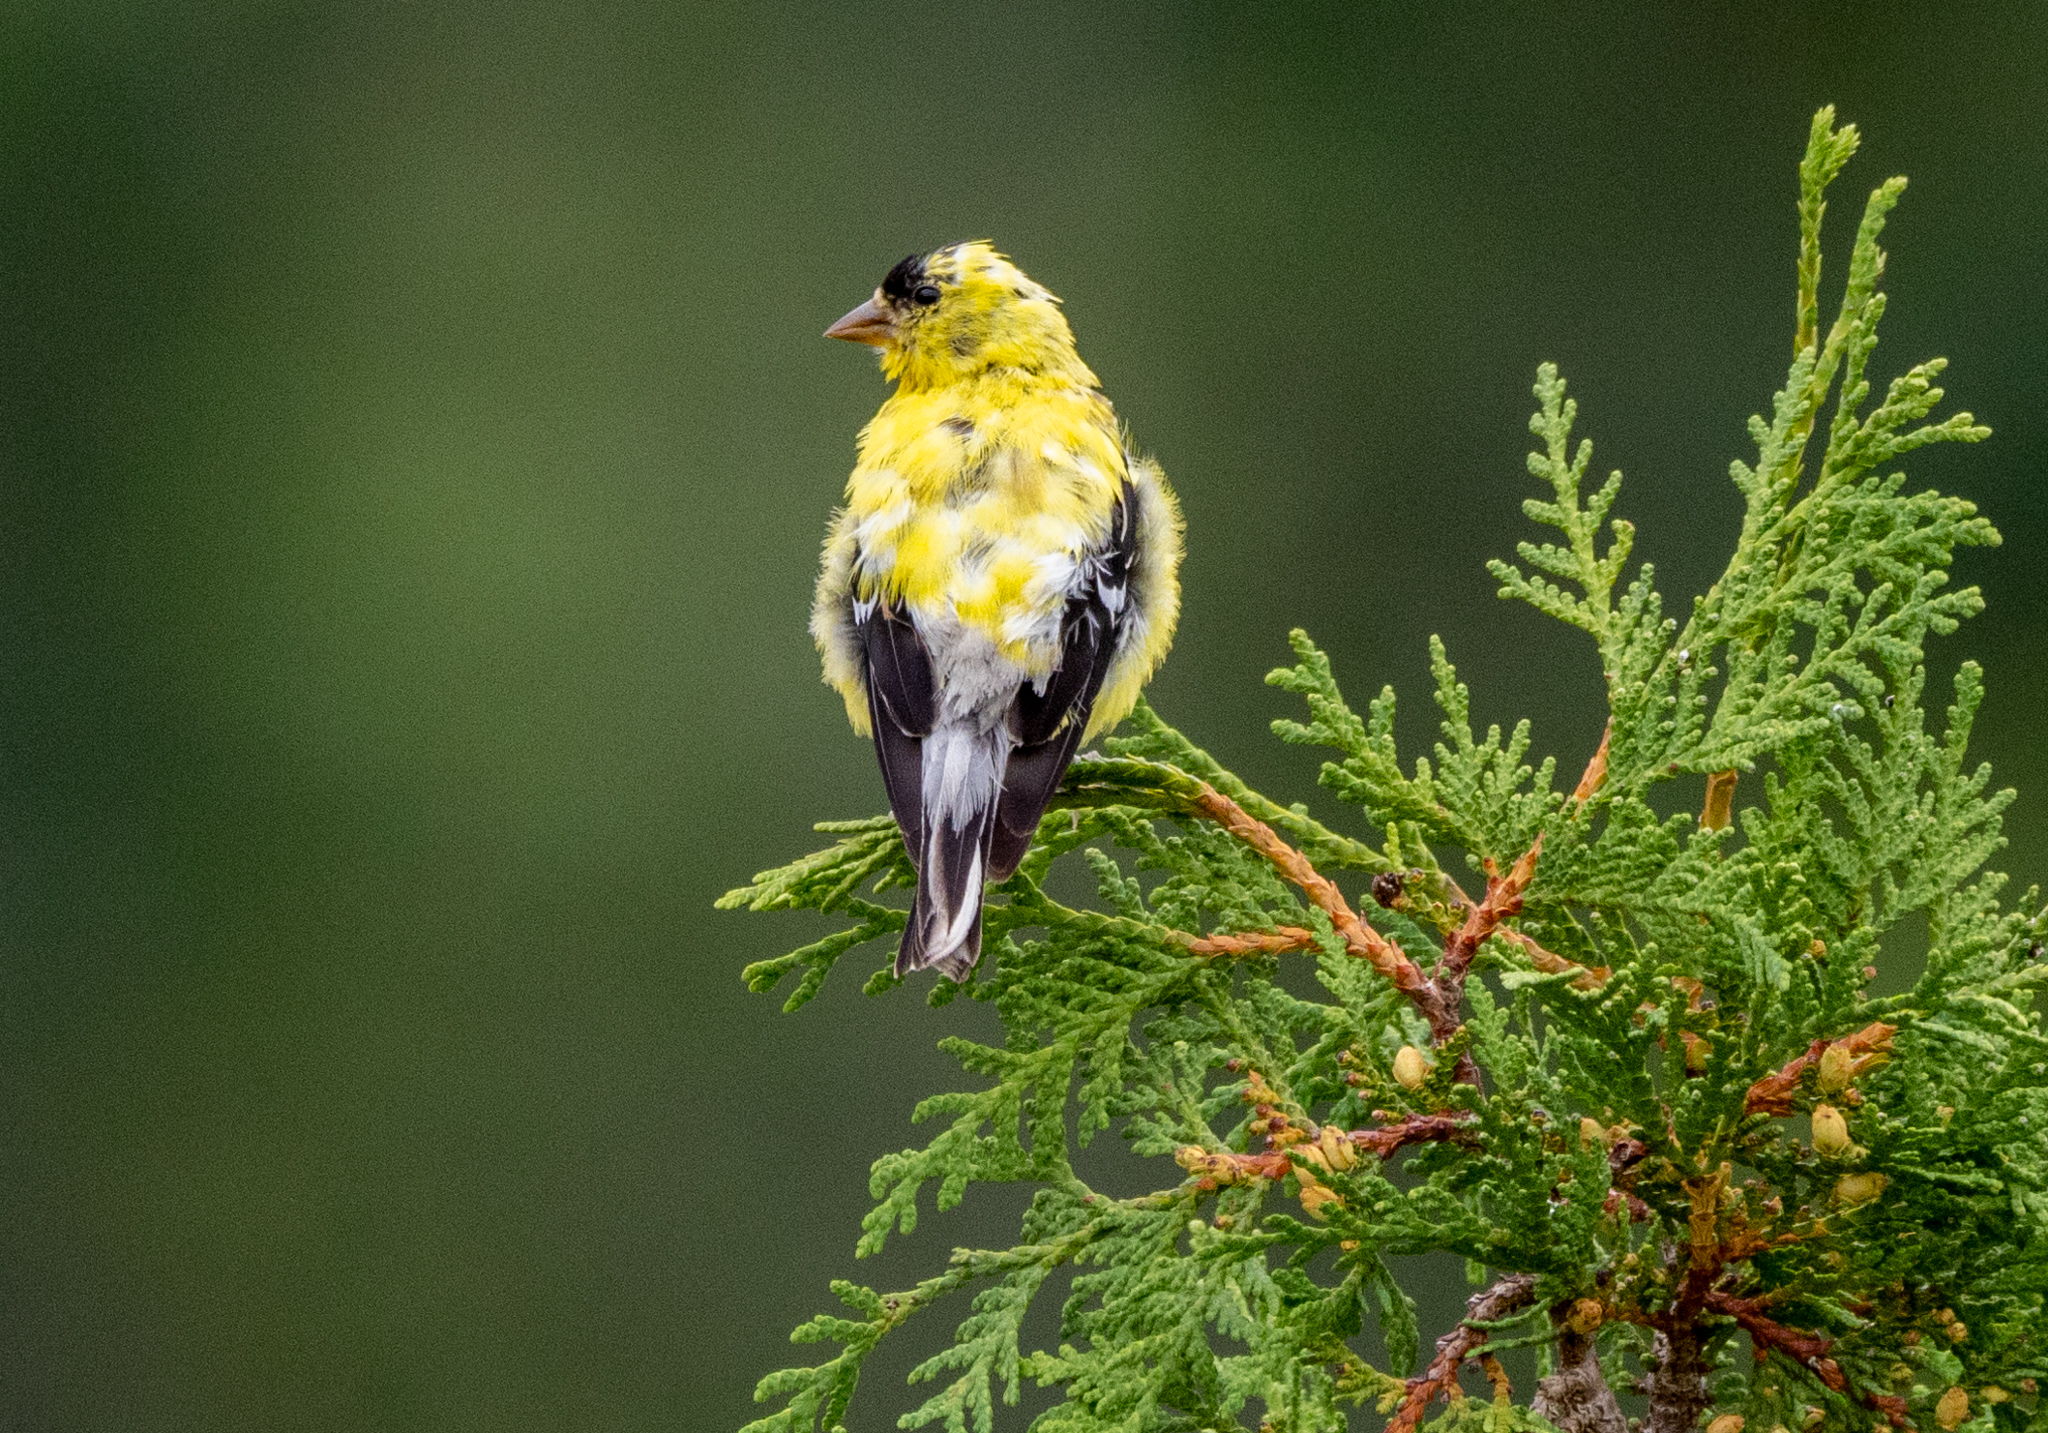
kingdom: Animalia
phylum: Chordata
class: Aves
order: Passeriformes
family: Fringillidae
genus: Spinus
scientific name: Spinus tristis
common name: American goldfinch
